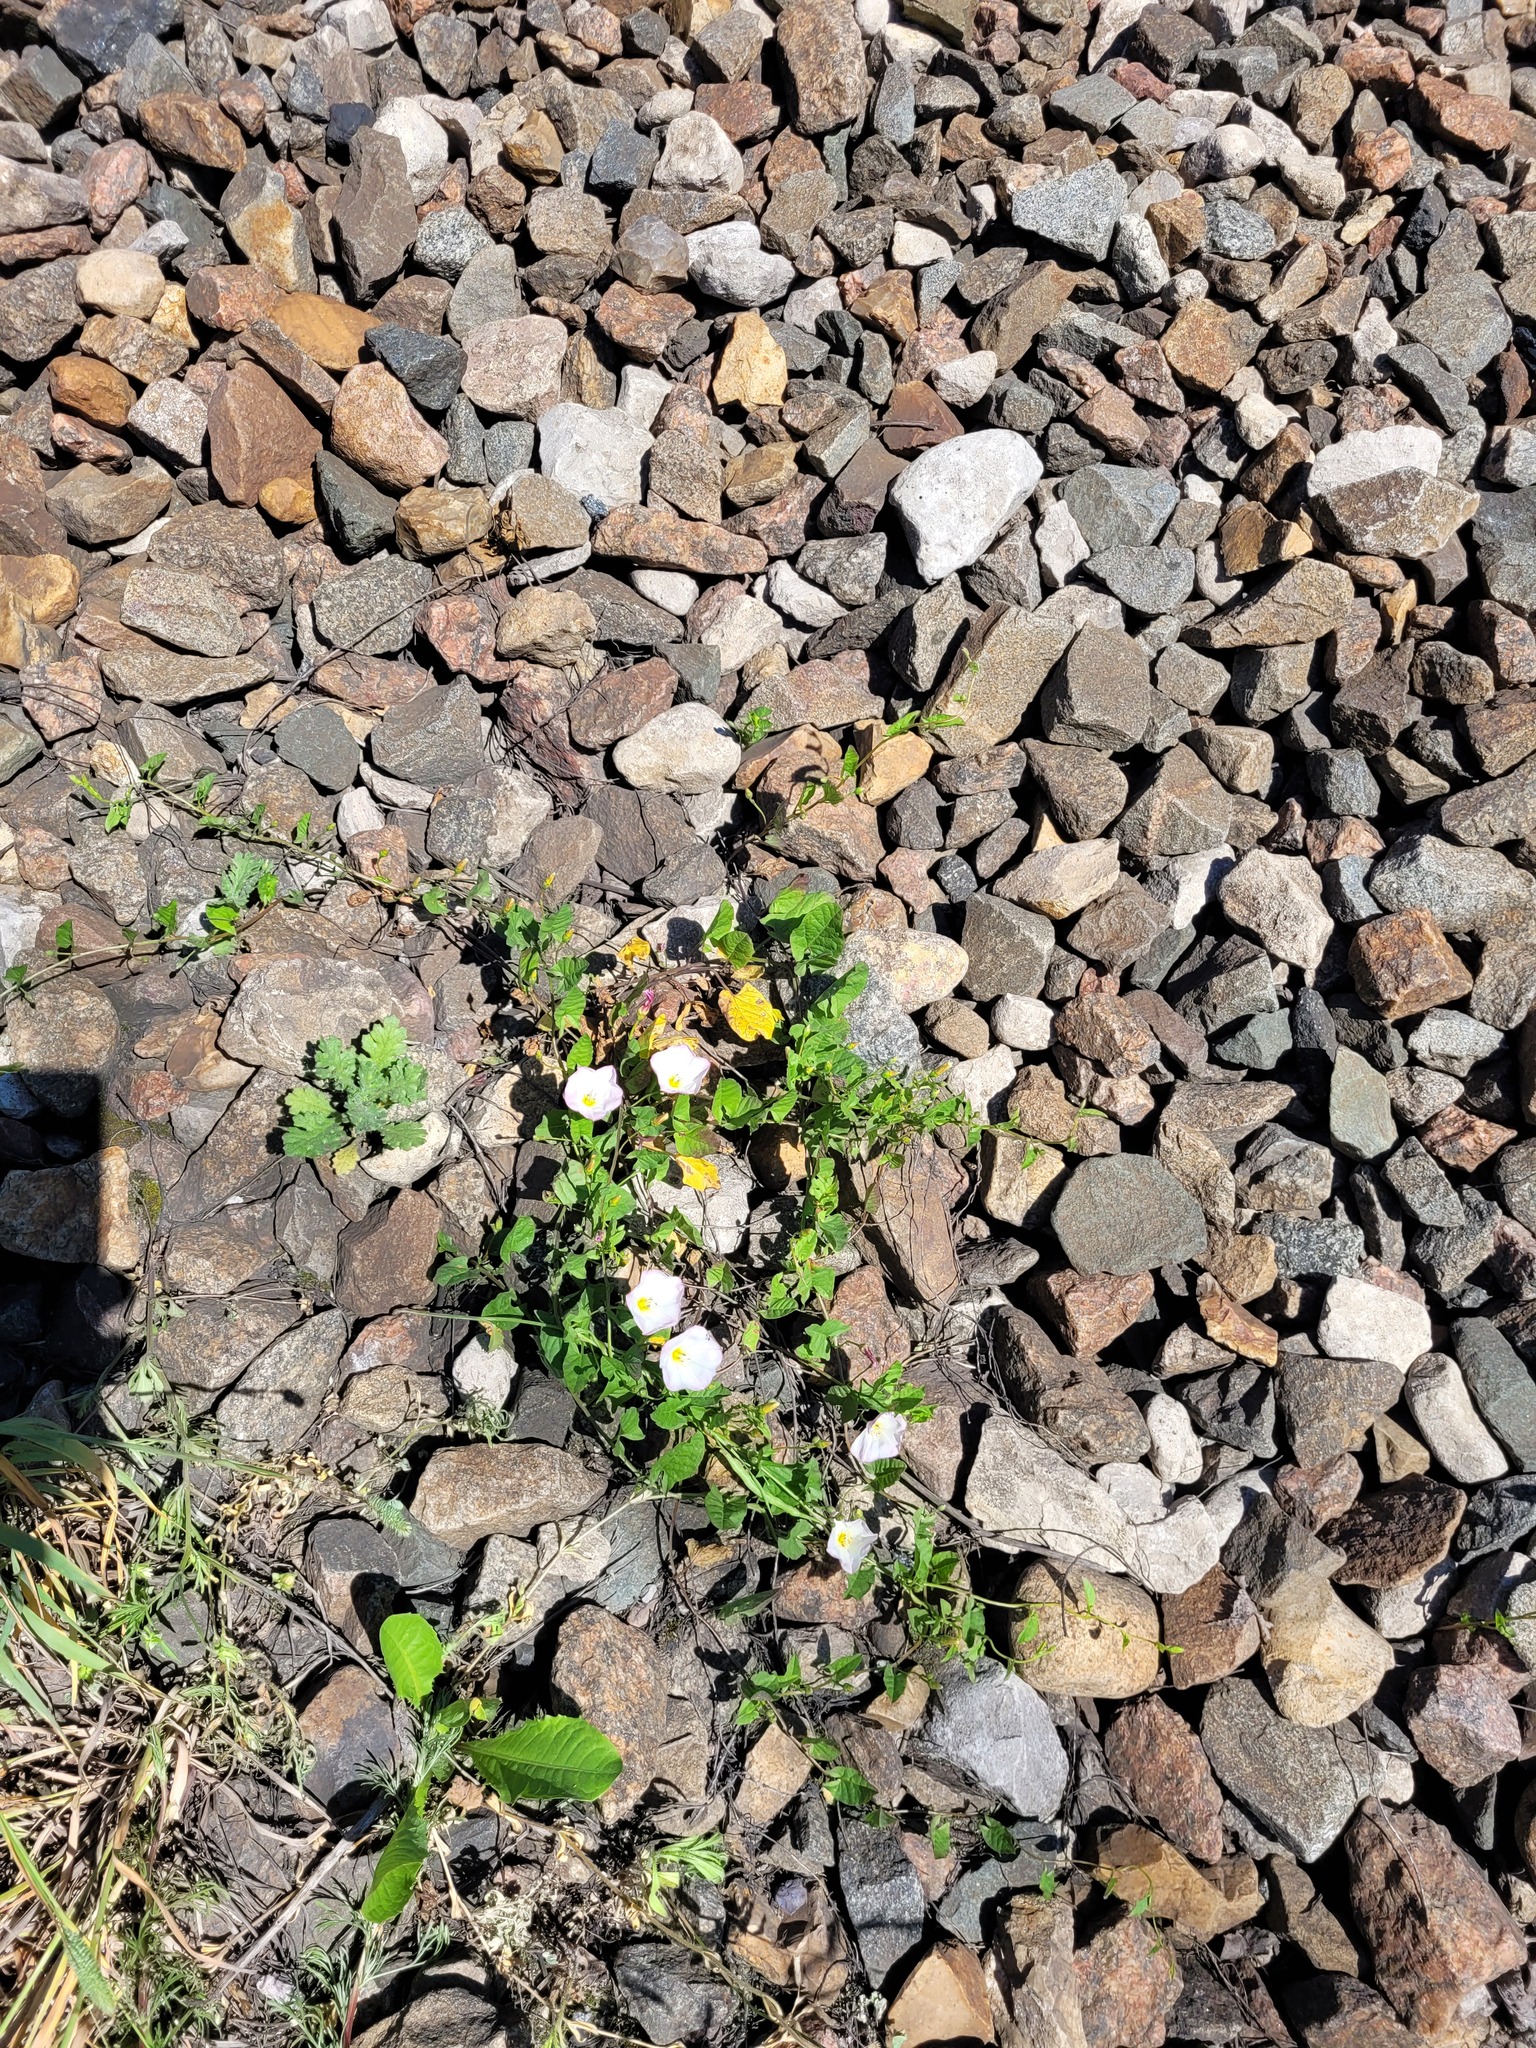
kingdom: Plantae
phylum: Tracheophyta
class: Magnoliopsida
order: Solanales
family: Convolvulaceae
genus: Convolvulus
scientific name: Convolvulus arvensis
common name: Field bindweed
